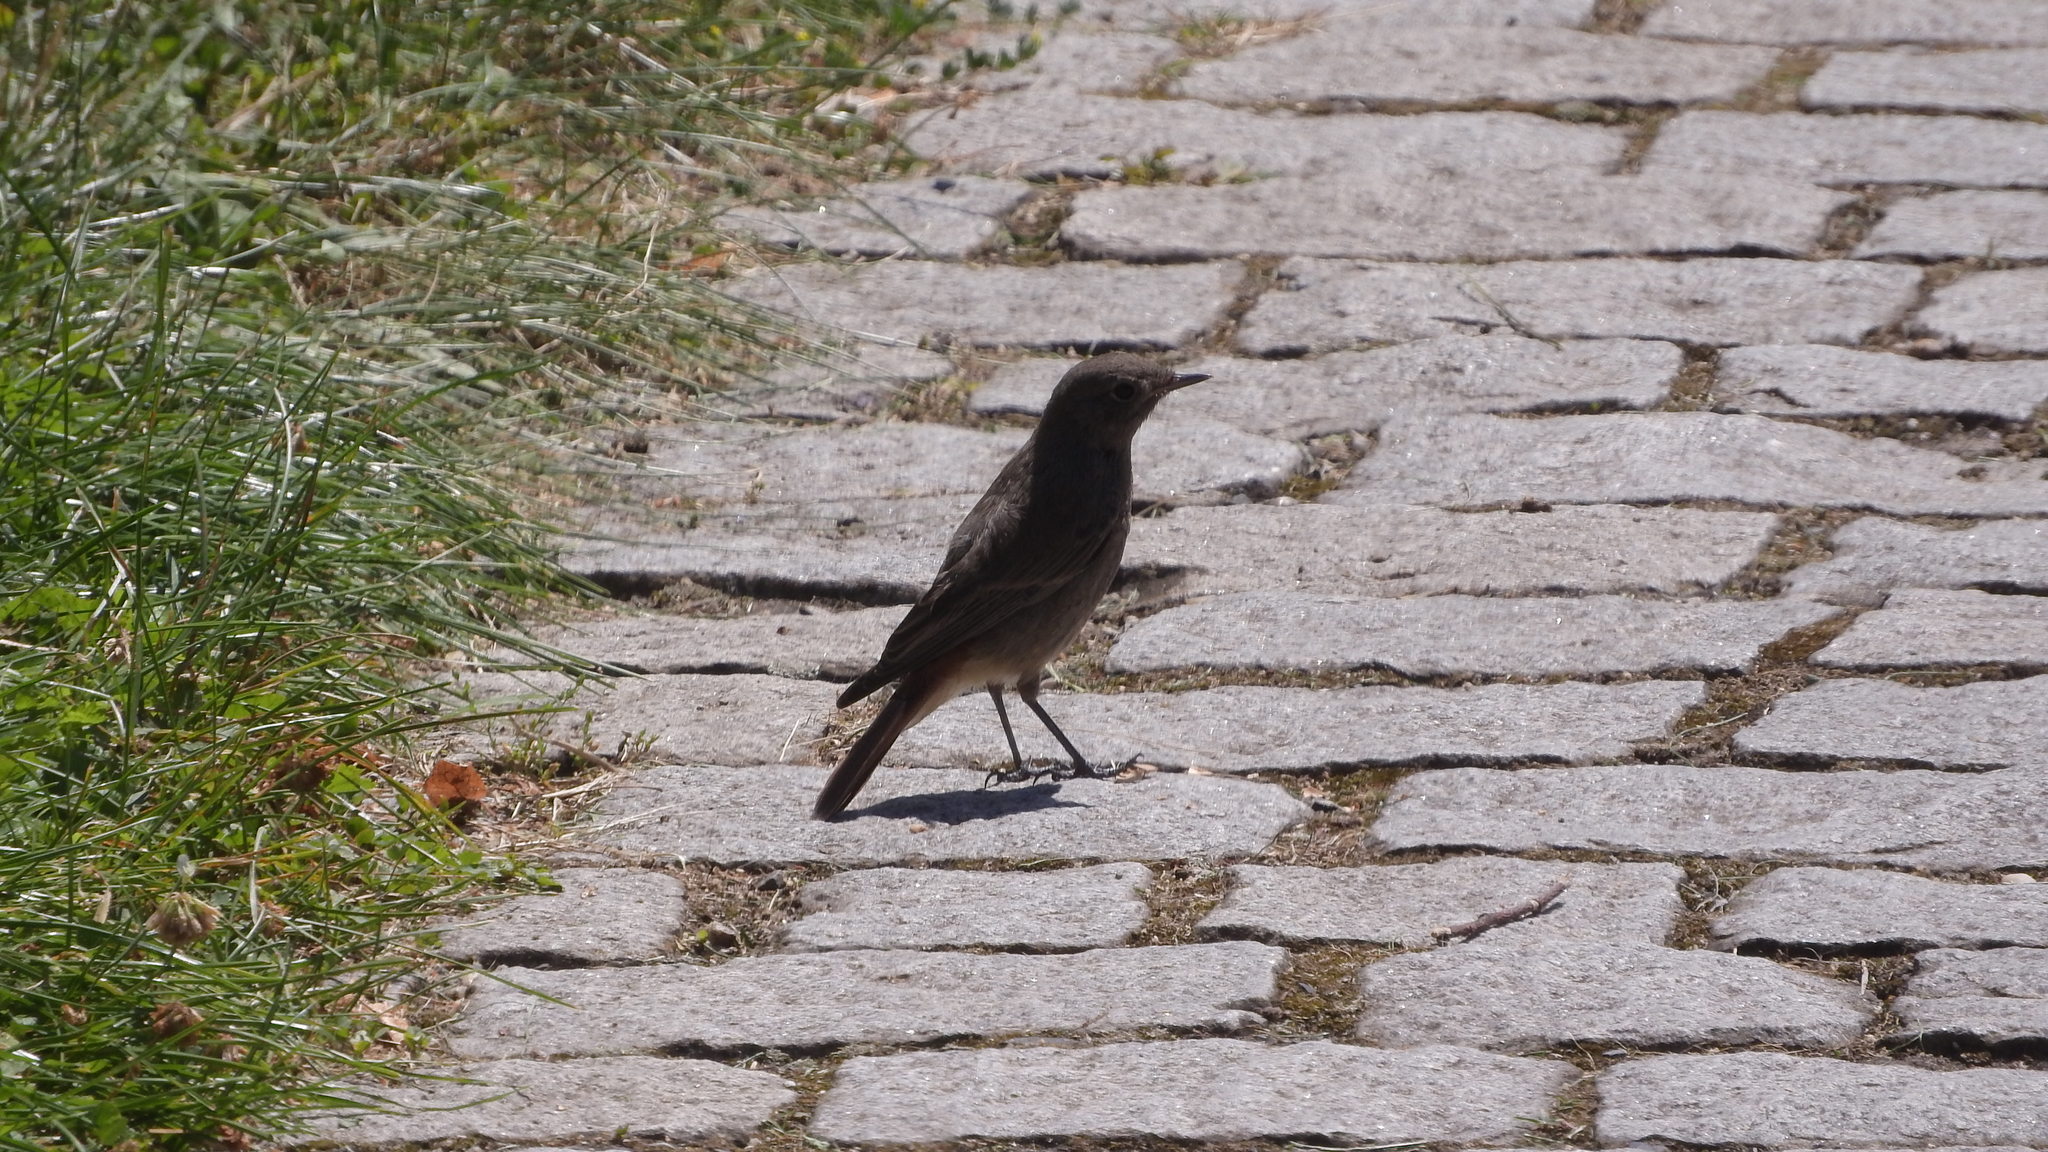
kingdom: Animalia
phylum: Chordata
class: Aves
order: Passeriformes
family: Muscicapidae
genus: Phoenicurus
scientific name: Phoenicurus ochruros
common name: Black redstart
